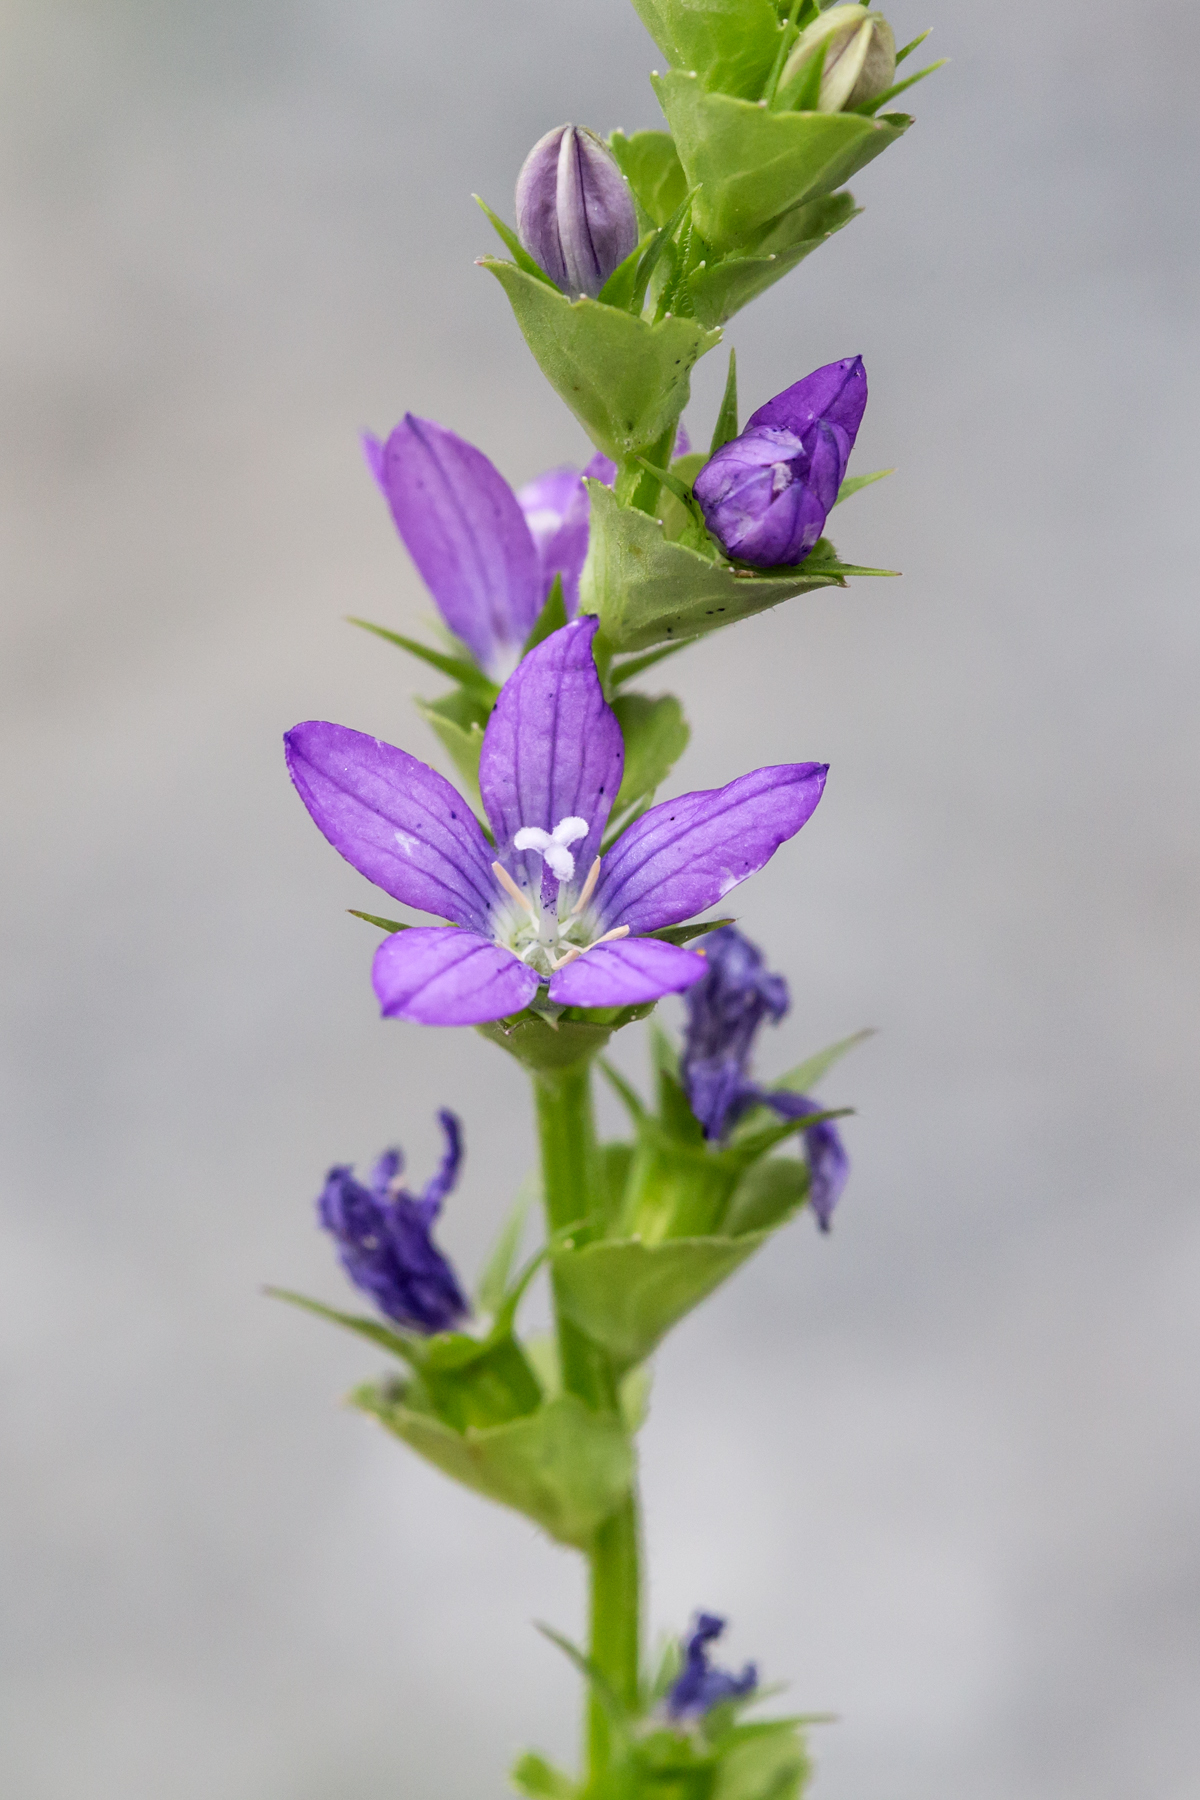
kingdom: Plantae
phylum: Tracheophyta
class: Magnoliopsida
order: Asterales
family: Campanulaceae
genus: Triodanis
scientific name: Triodanis perfoliata
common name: Clasping venus' looking-glass
